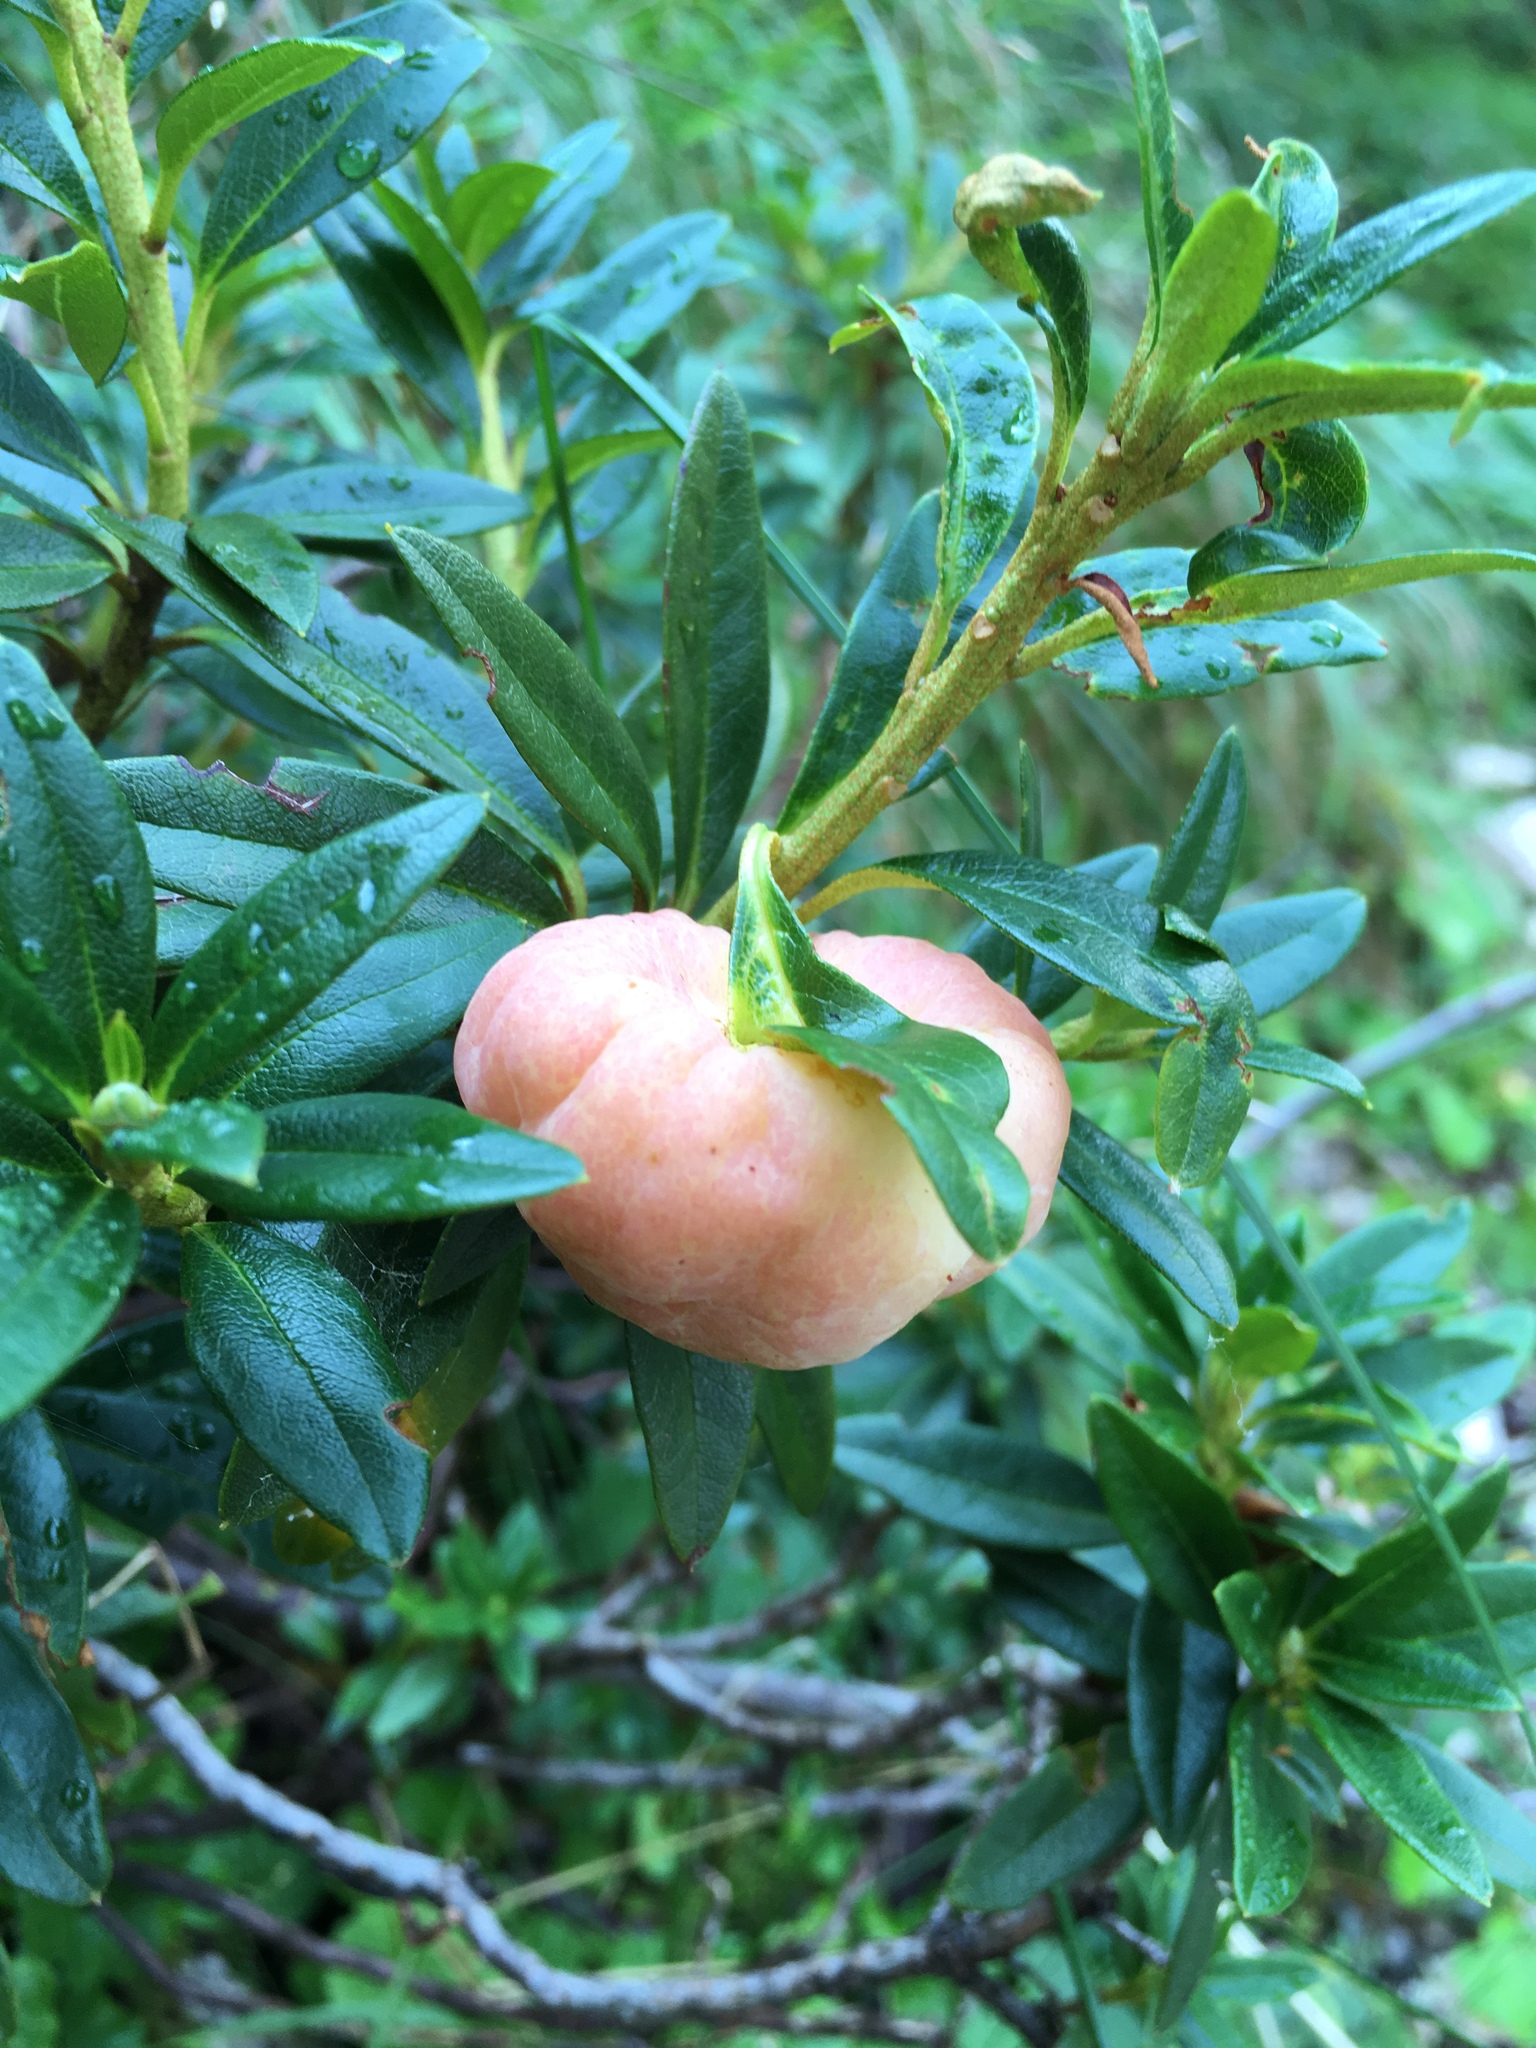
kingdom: Fungi
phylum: Basidiomycota
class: Exobasidiomycetes
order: Exobasidiales
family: Exobasidiaceae
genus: Exobasidium
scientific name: Exobasidium rhododendri
